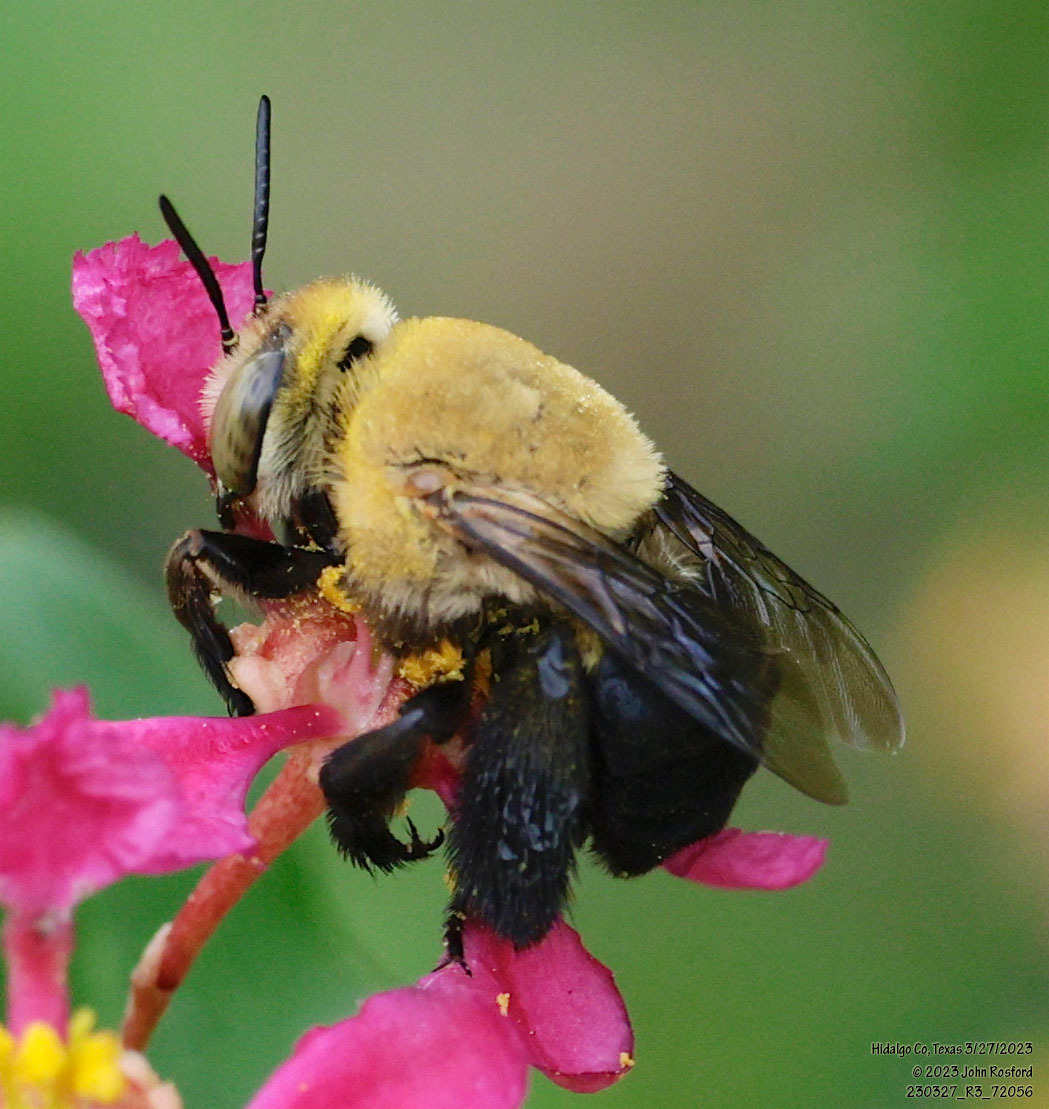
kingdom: Animalia
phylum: Arthropoda
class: Insecta
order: Hymenoptera
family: Apidae
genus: Centris
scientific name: Centris atripes
